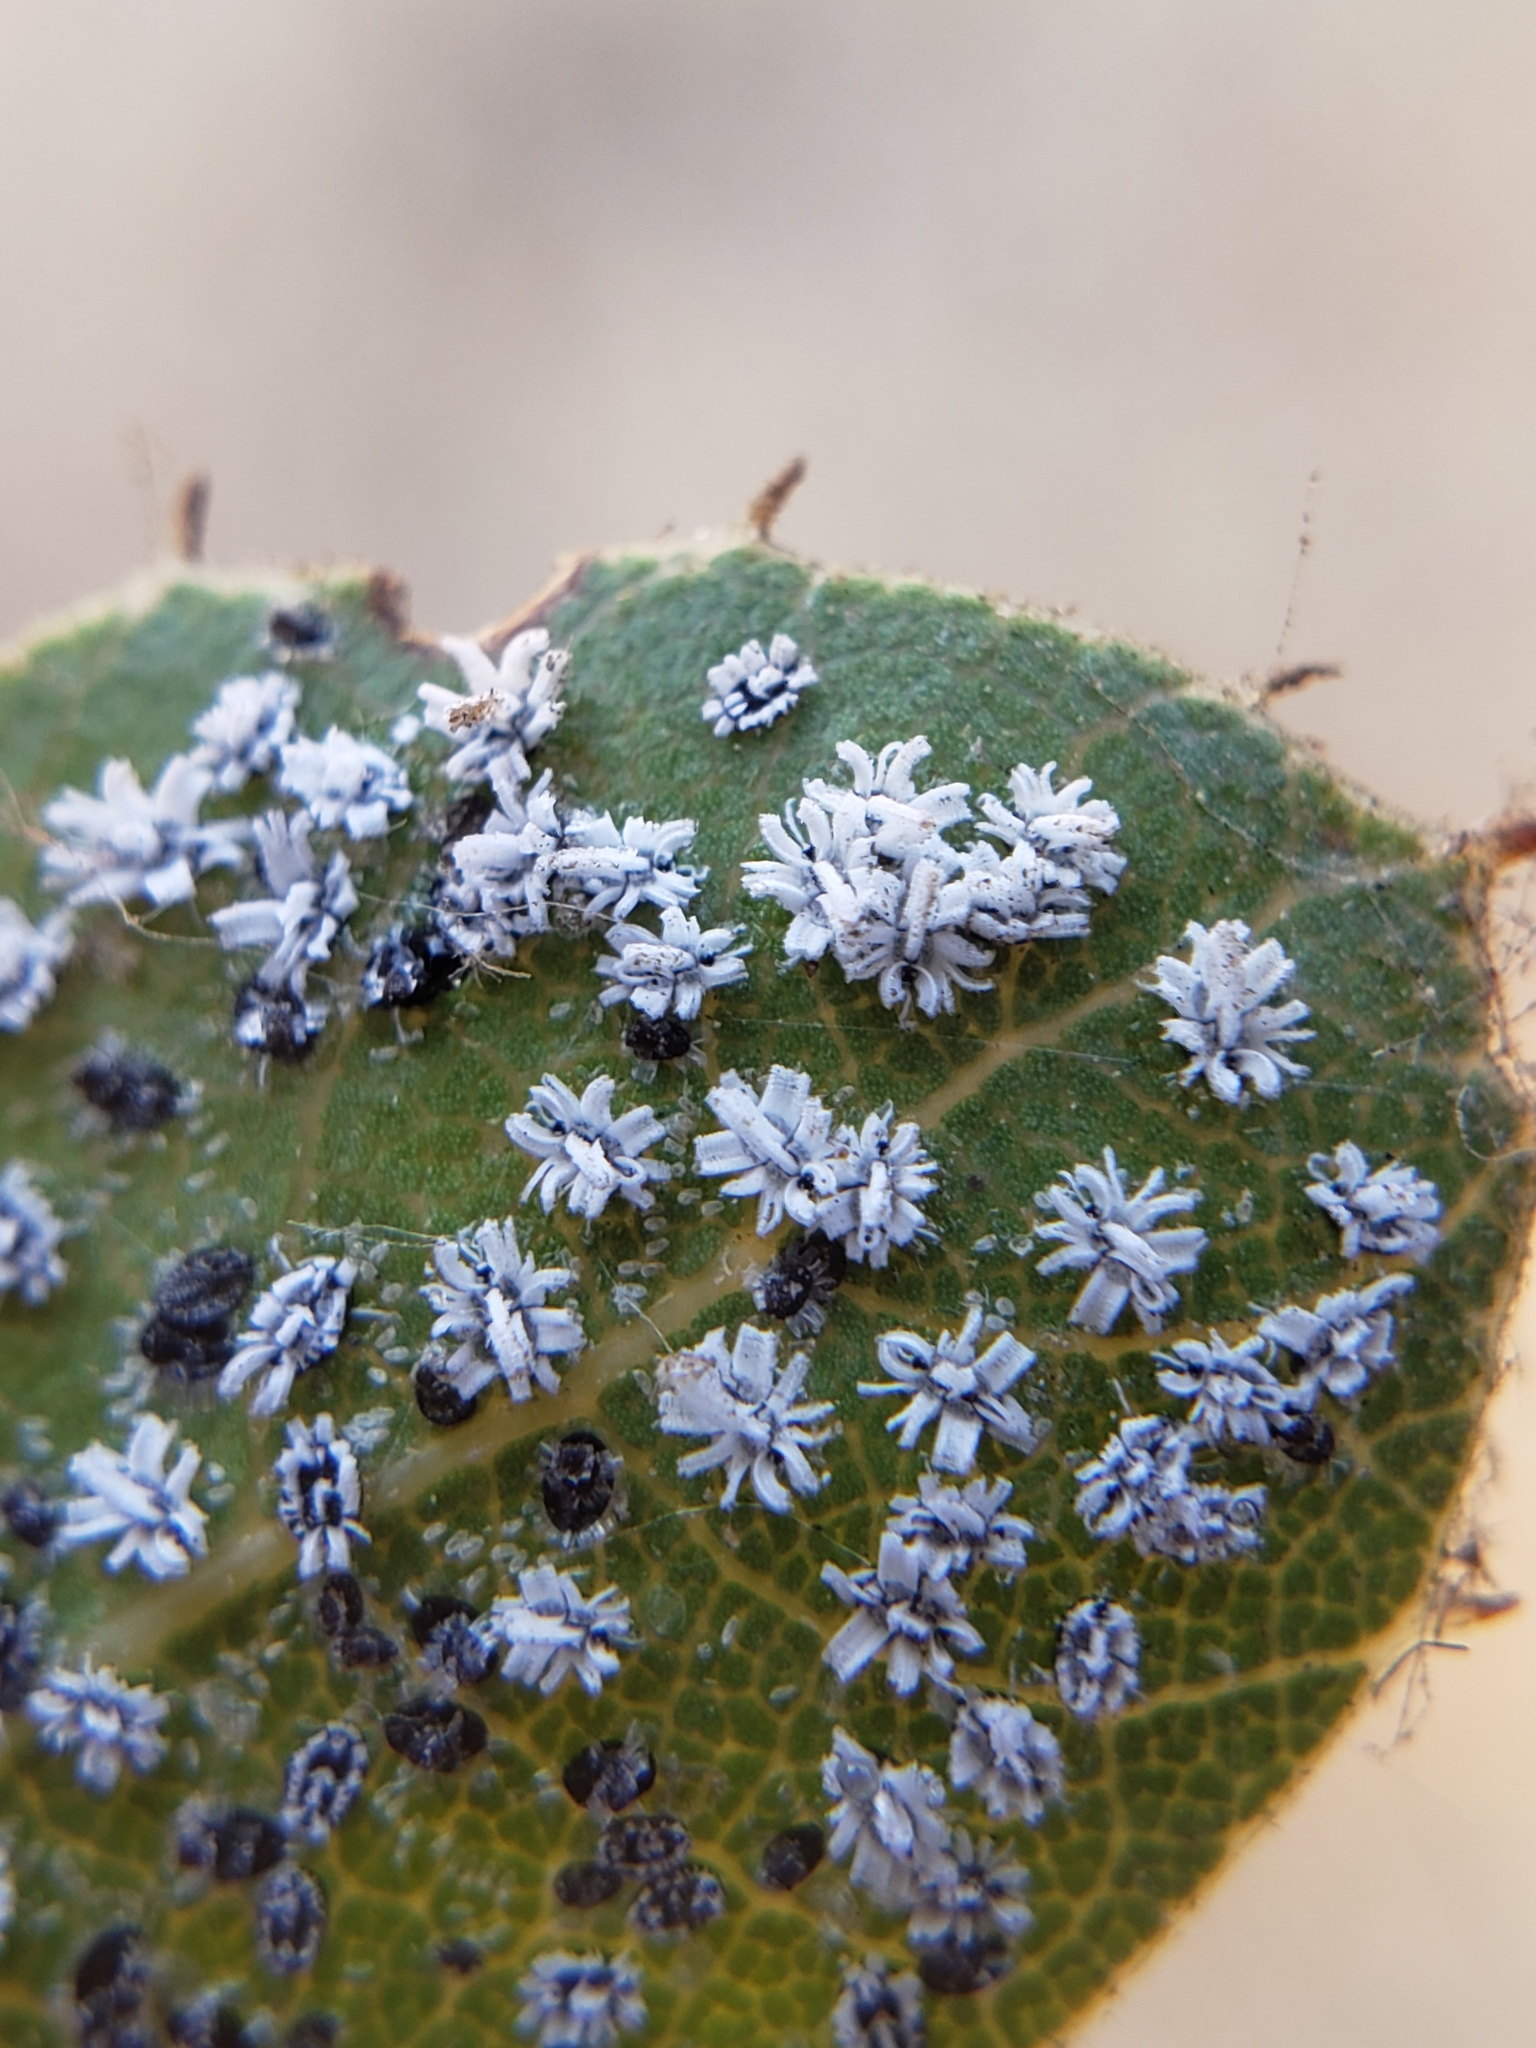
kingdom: Animalia
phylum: Arthropoda
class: Insecta
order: Hemiptera
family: Aleyrodidae
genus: Aleuroplatus
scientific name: Aleuroplatus coronata
